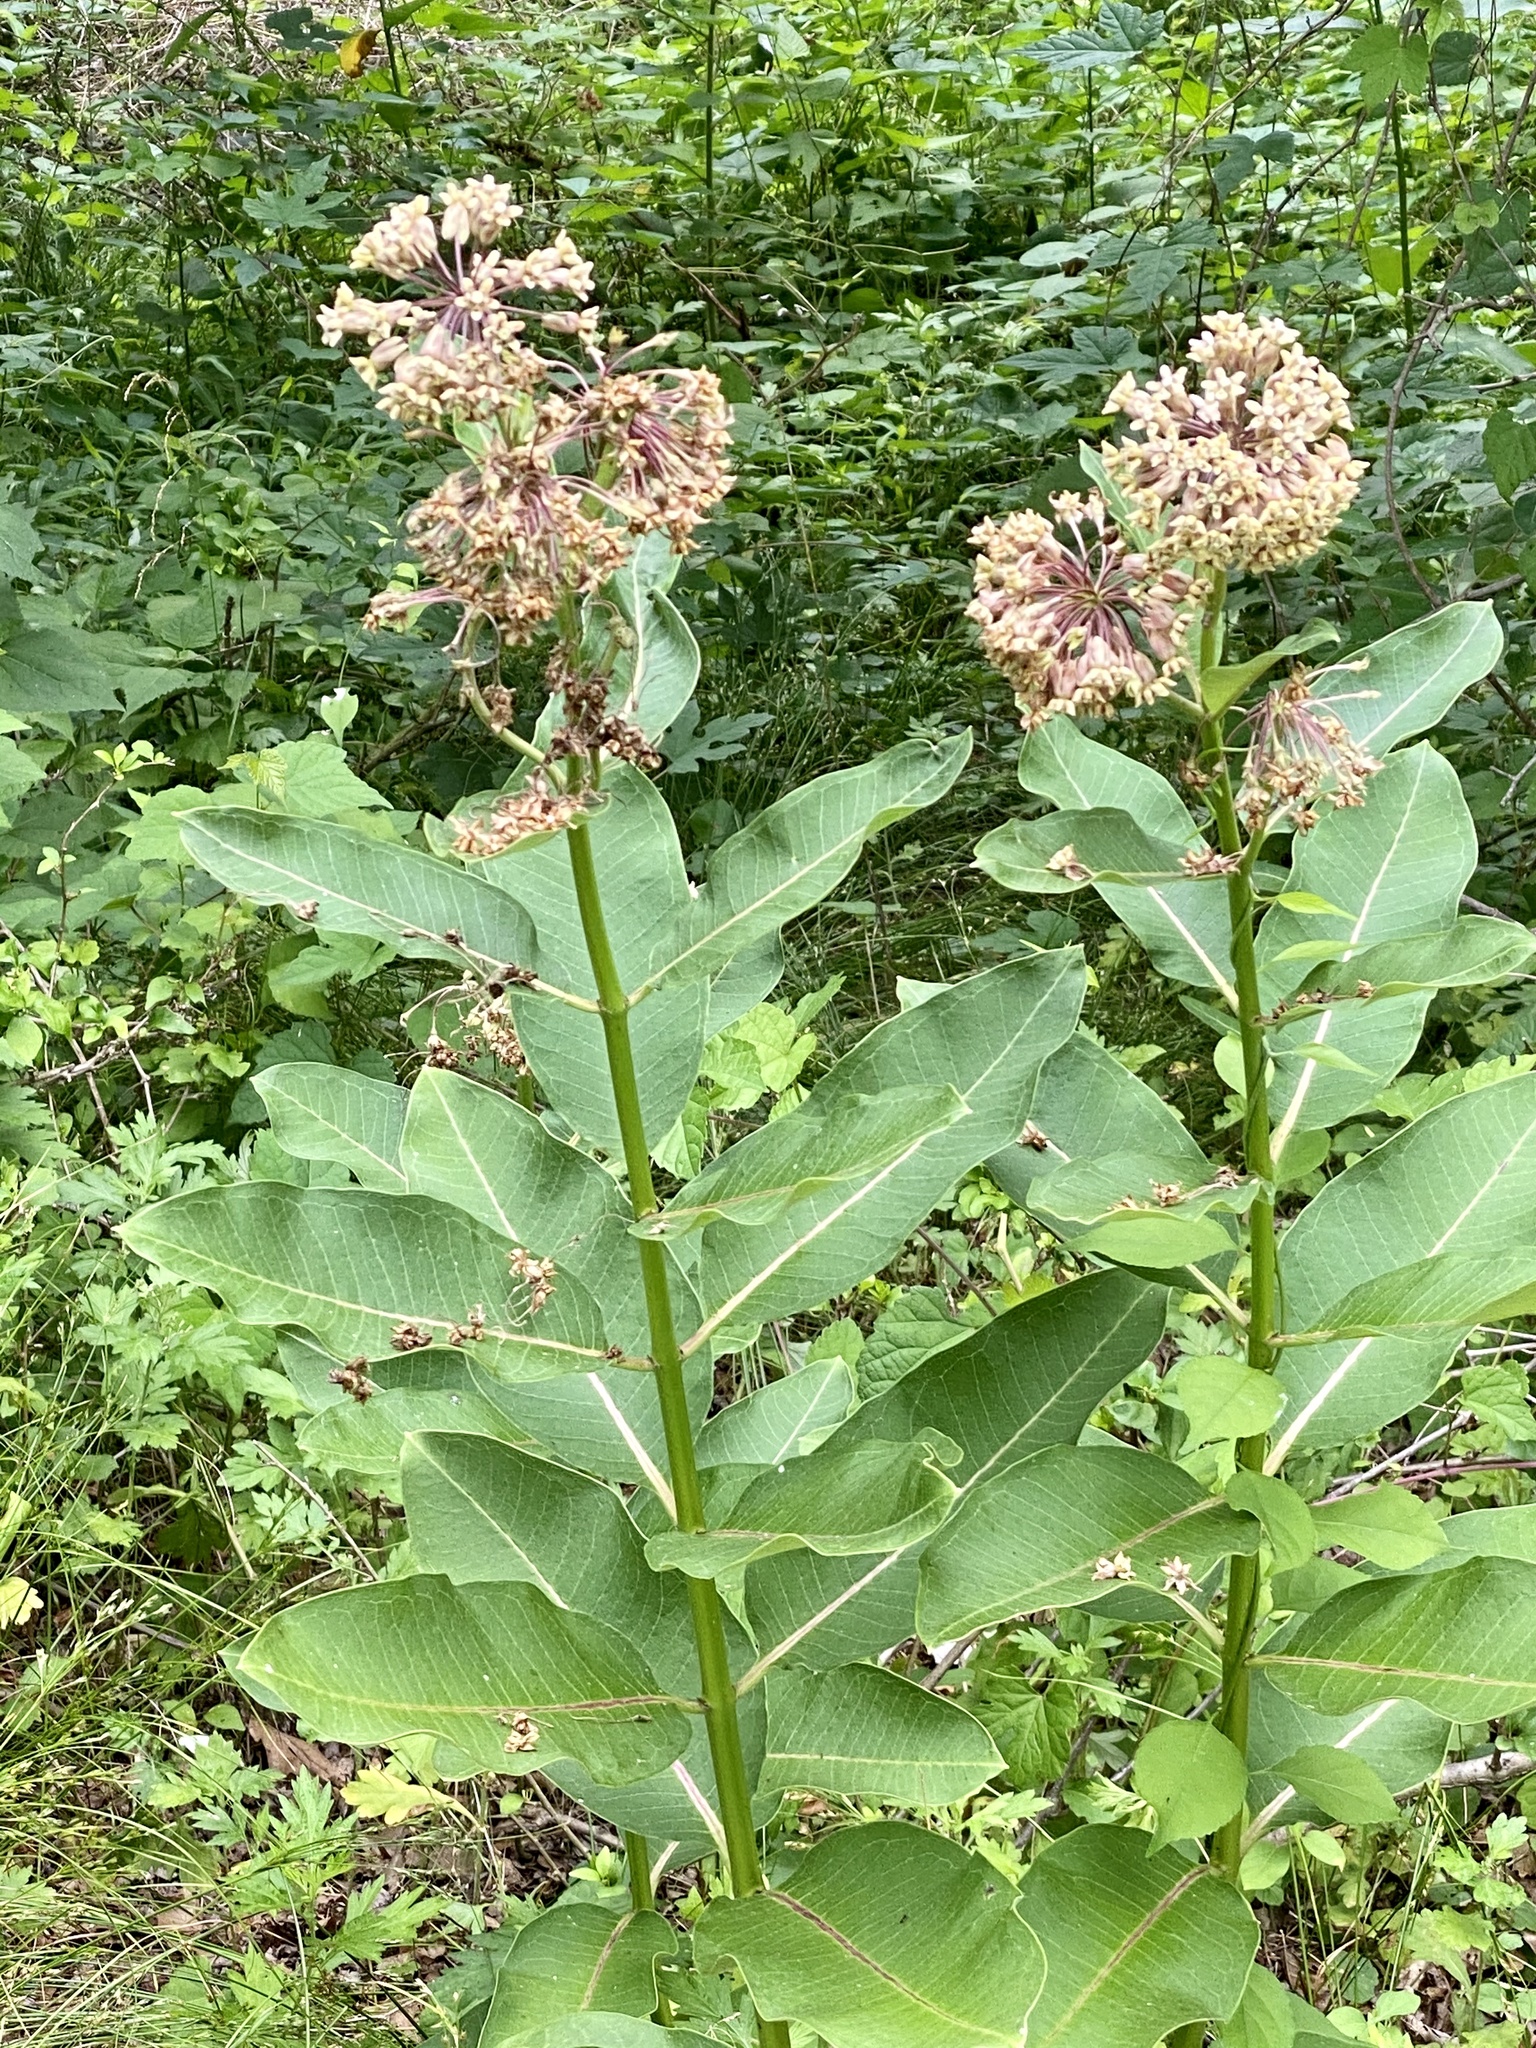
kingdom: Plantae
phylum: Tracheophyta
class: Magnoliopsida
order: Gentianales
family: Apocynaceae
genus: Asclepias
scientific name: Asclepias syriaca
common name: Common milkweed
